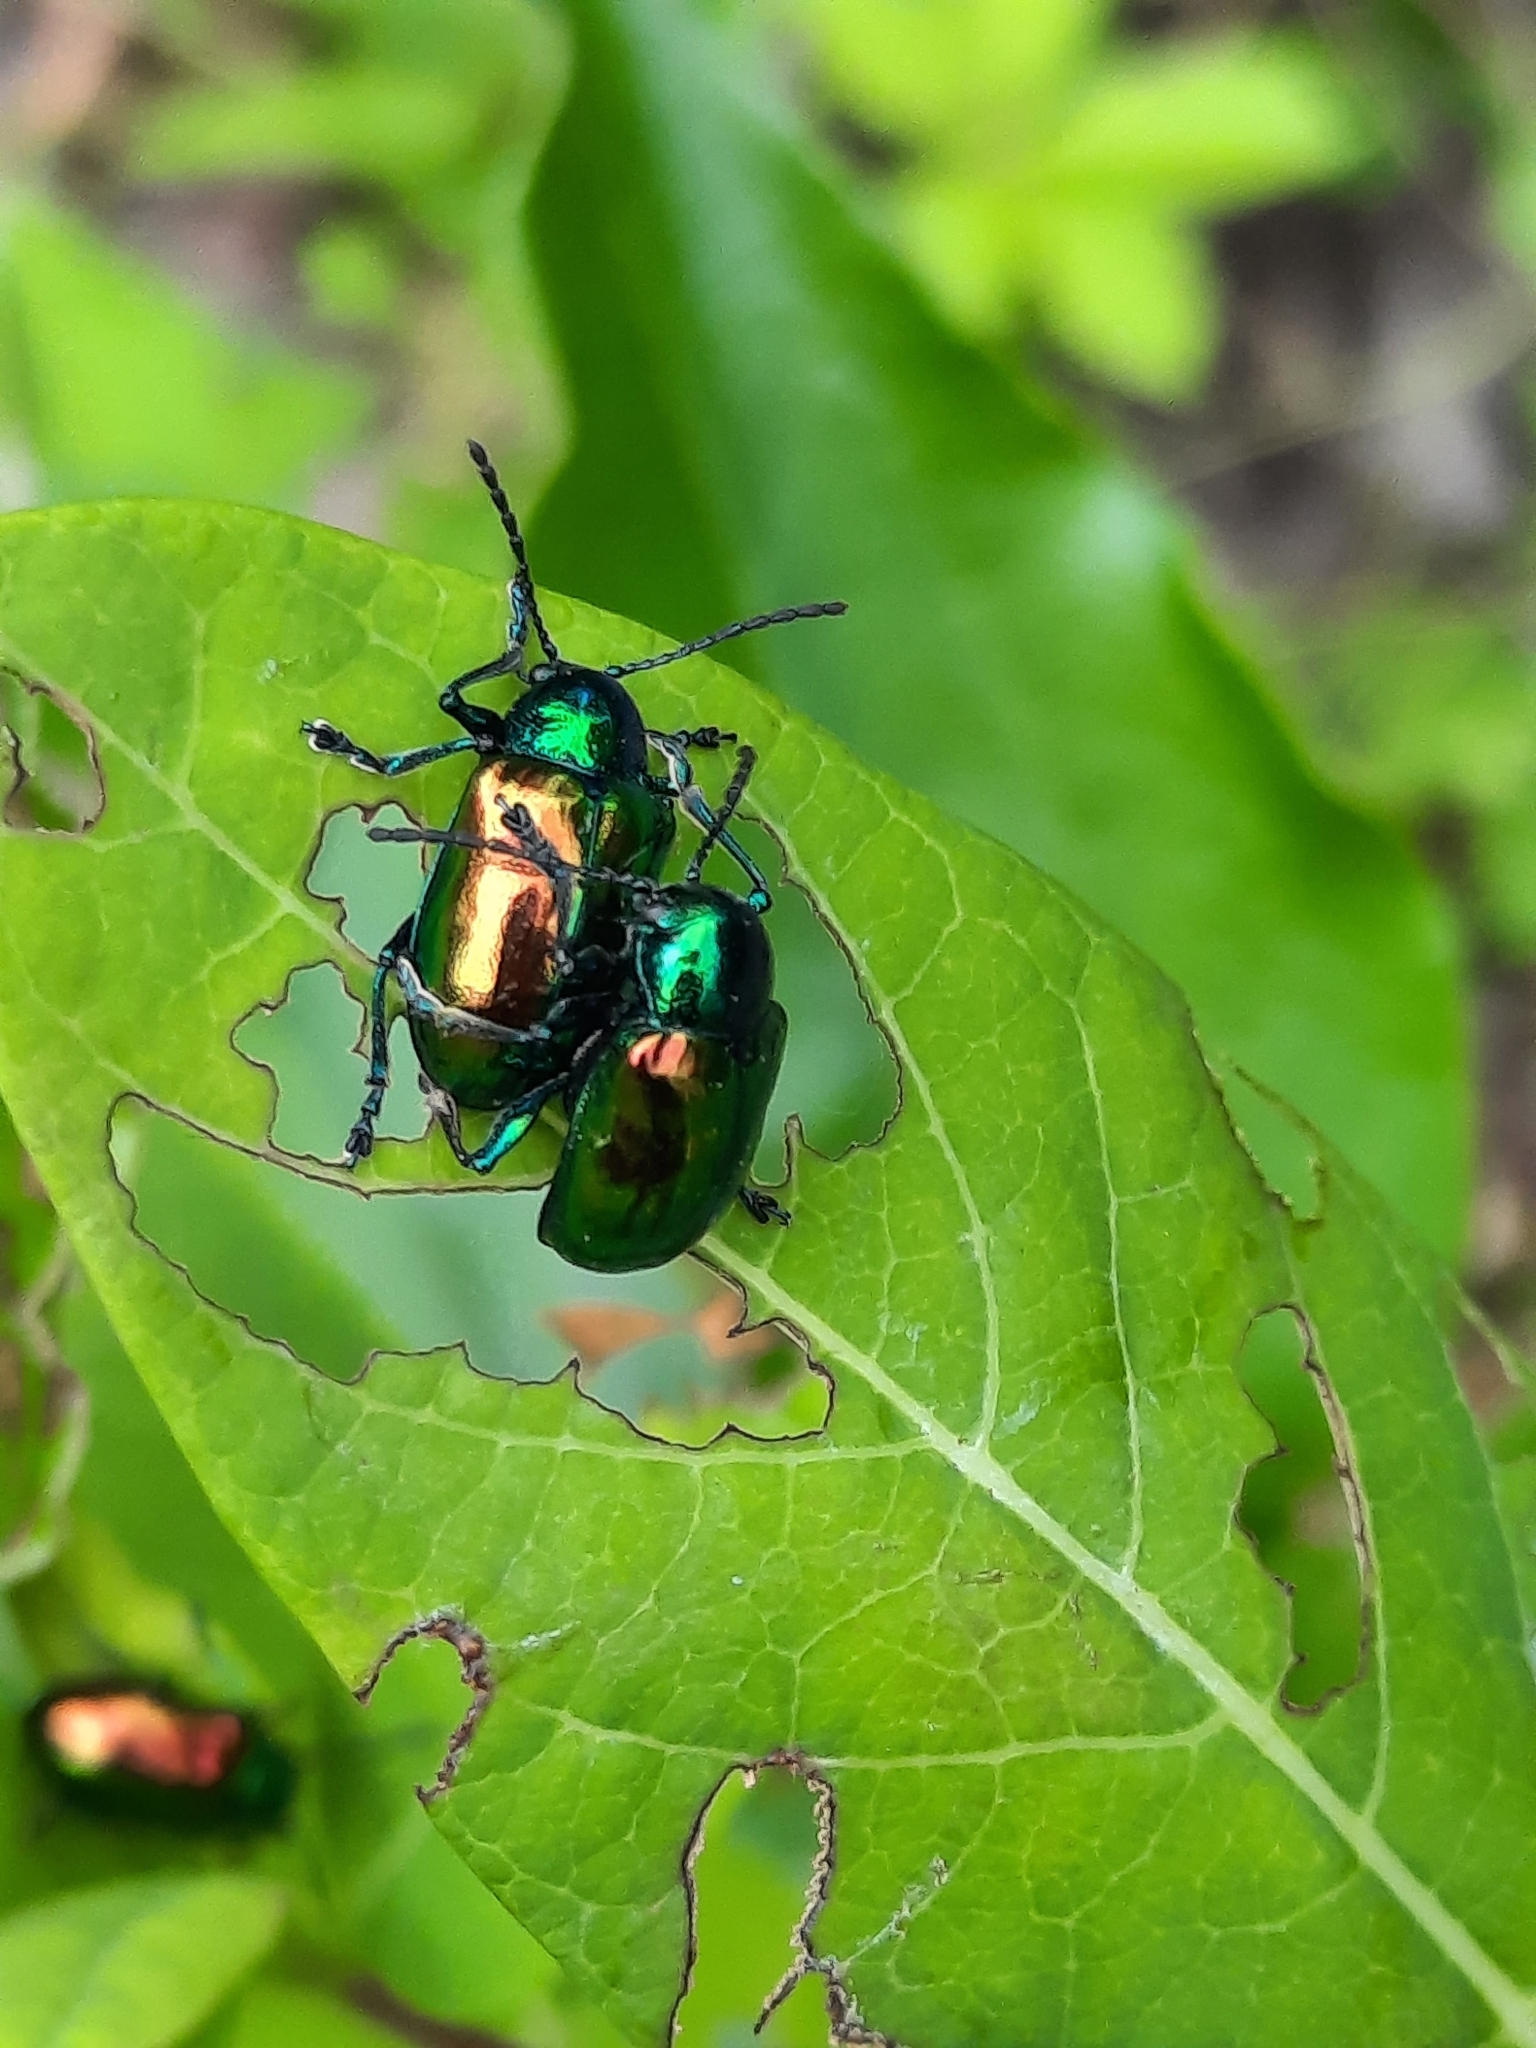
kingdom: Animalia
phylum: Arthropoda
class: Insecta
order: Coleoptera
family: Chrysomelidae
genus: Chrysochus
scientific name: Chrysochus auratus
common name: Dogbane leaf beetle
